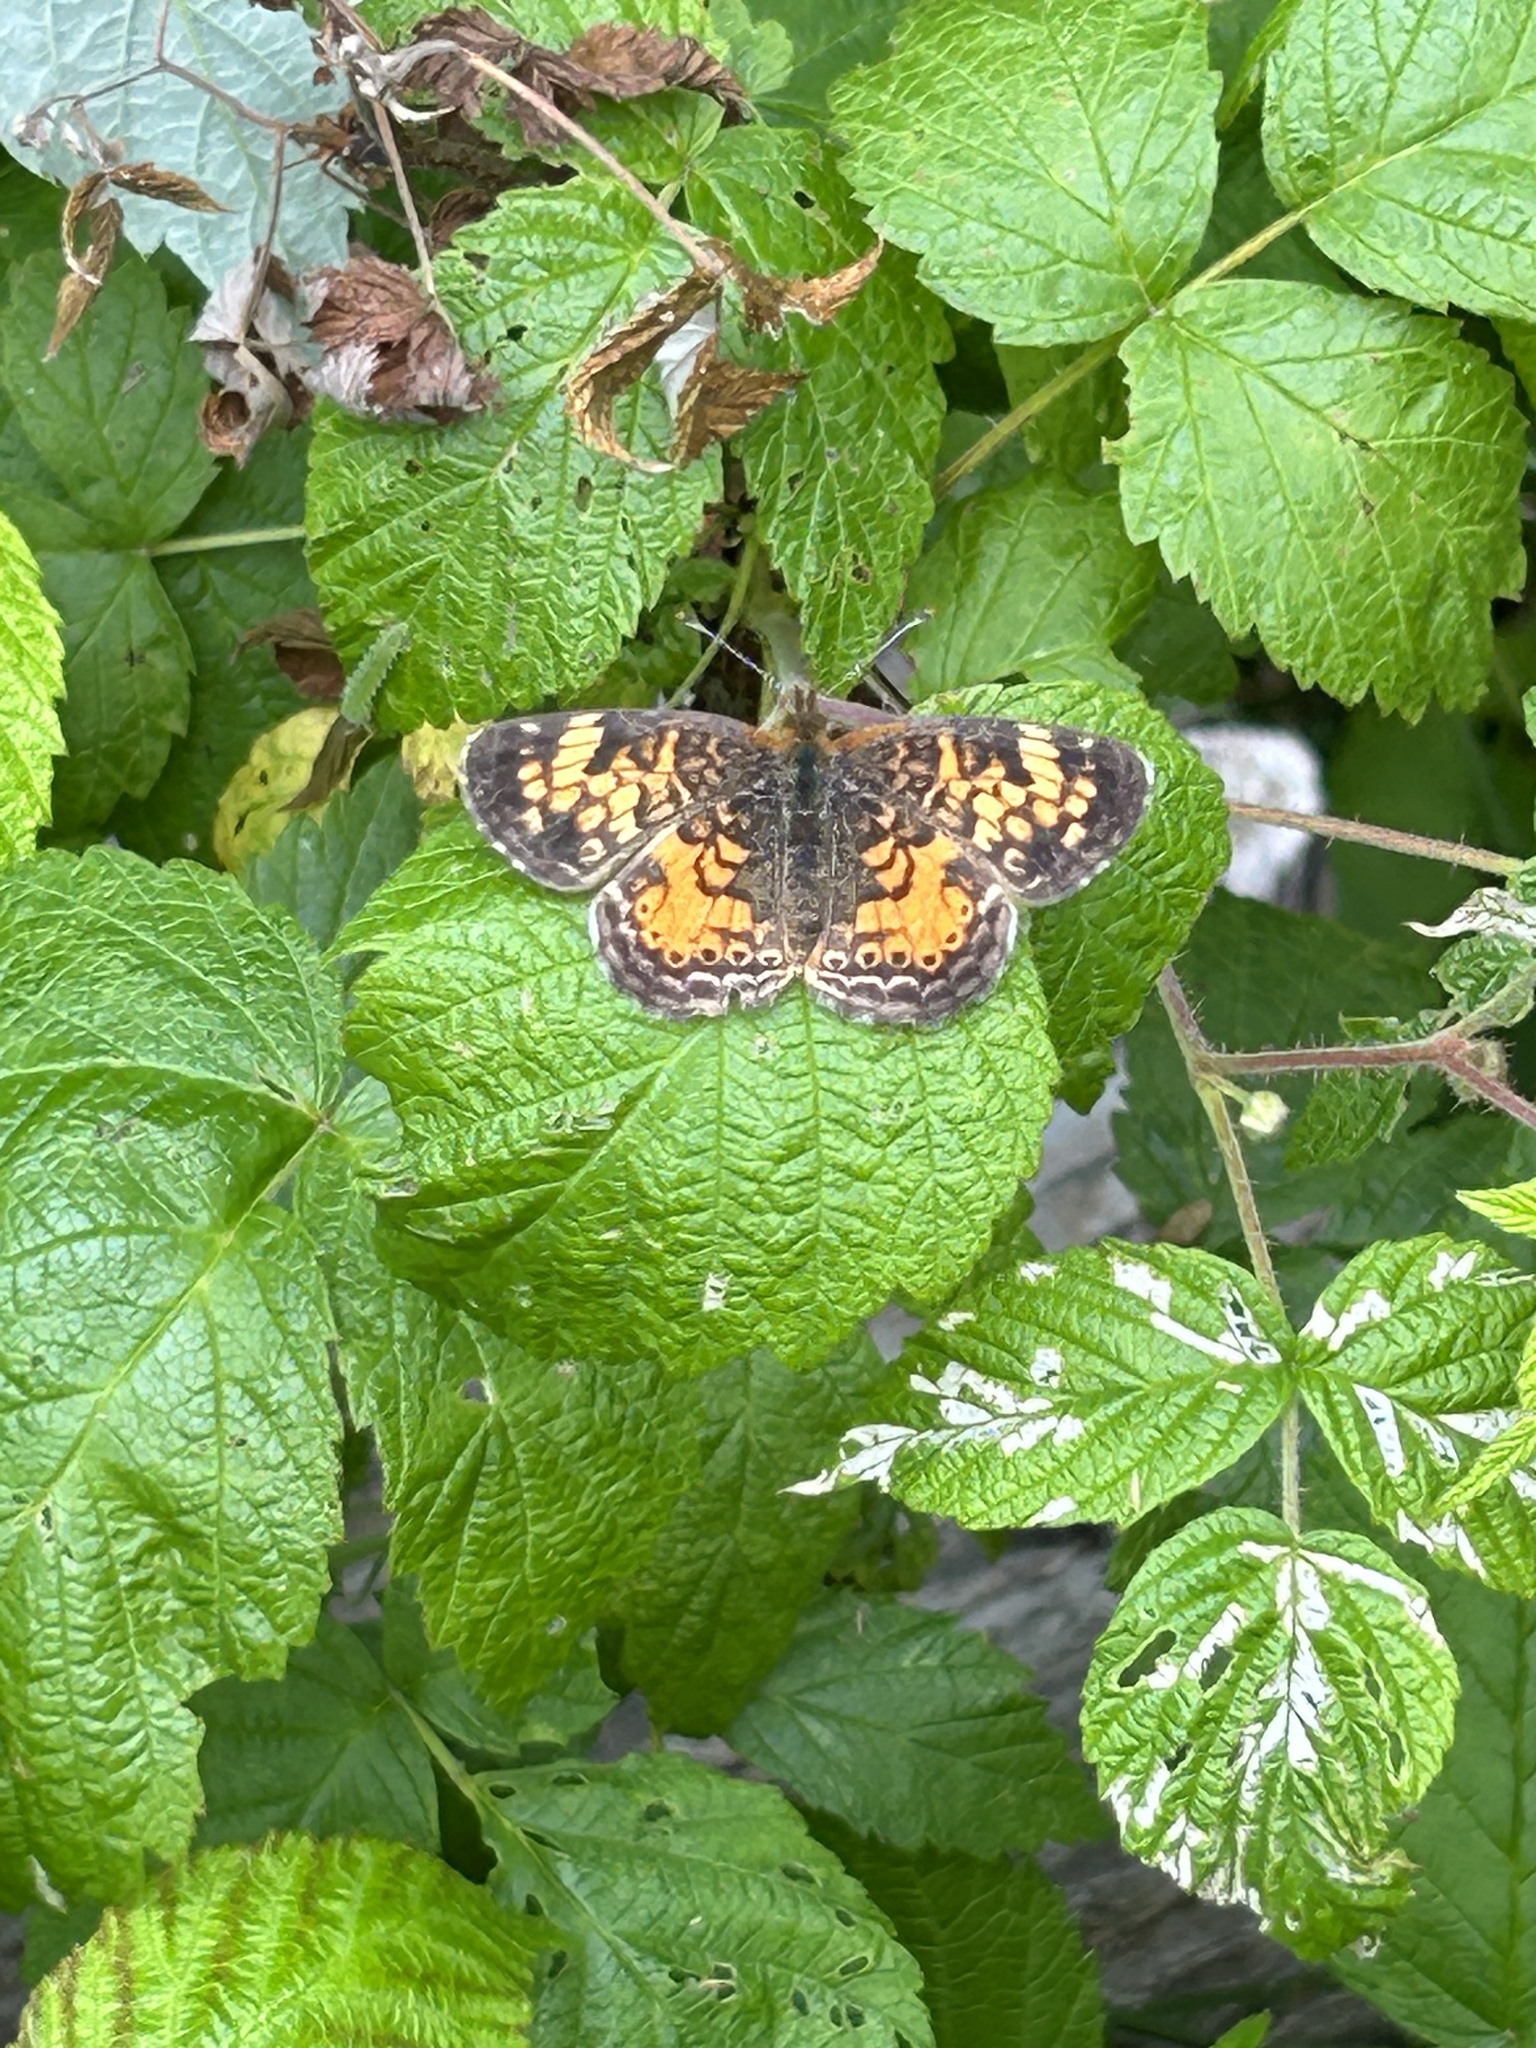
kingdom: Animalia
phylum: Arthropoda
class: Insecta
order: Lepidoptera
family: Nymphalidae
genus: Phyciodes
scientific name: Phyciodes tharos
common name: Pearl crescent
